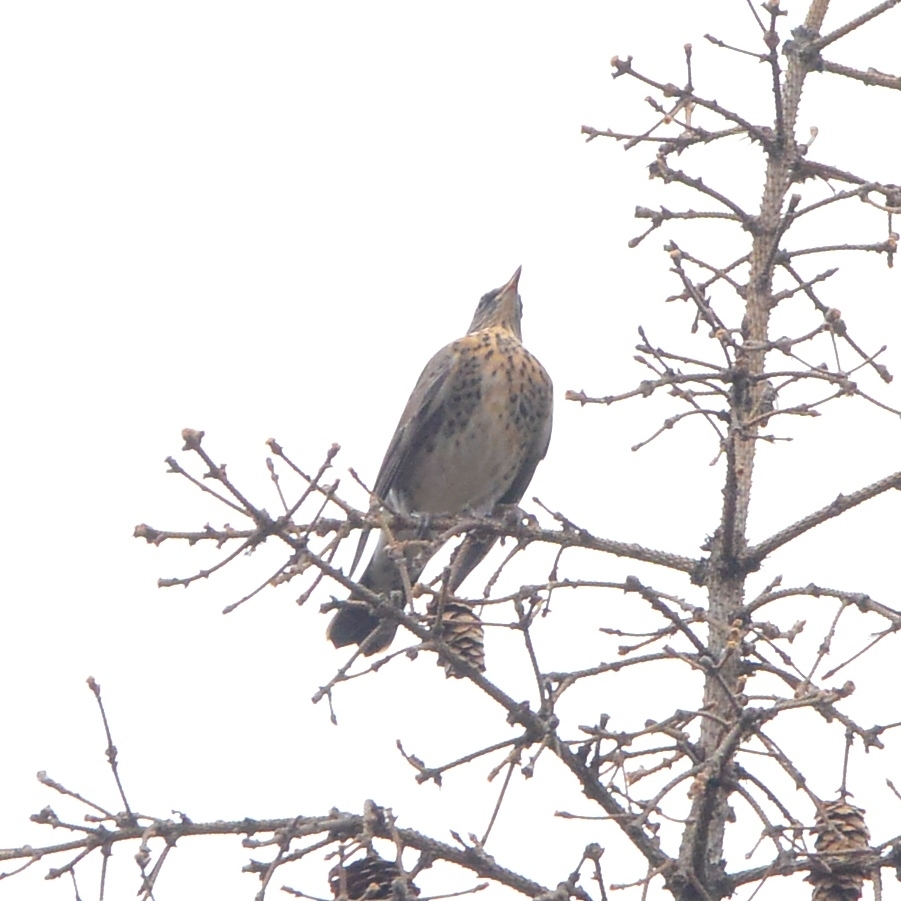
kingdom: Animalia
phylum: Chordata
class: Aves
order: Passeriformes
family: Turdidae
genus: Turdus
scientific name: Turdus pilaris
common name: Fieldfare
